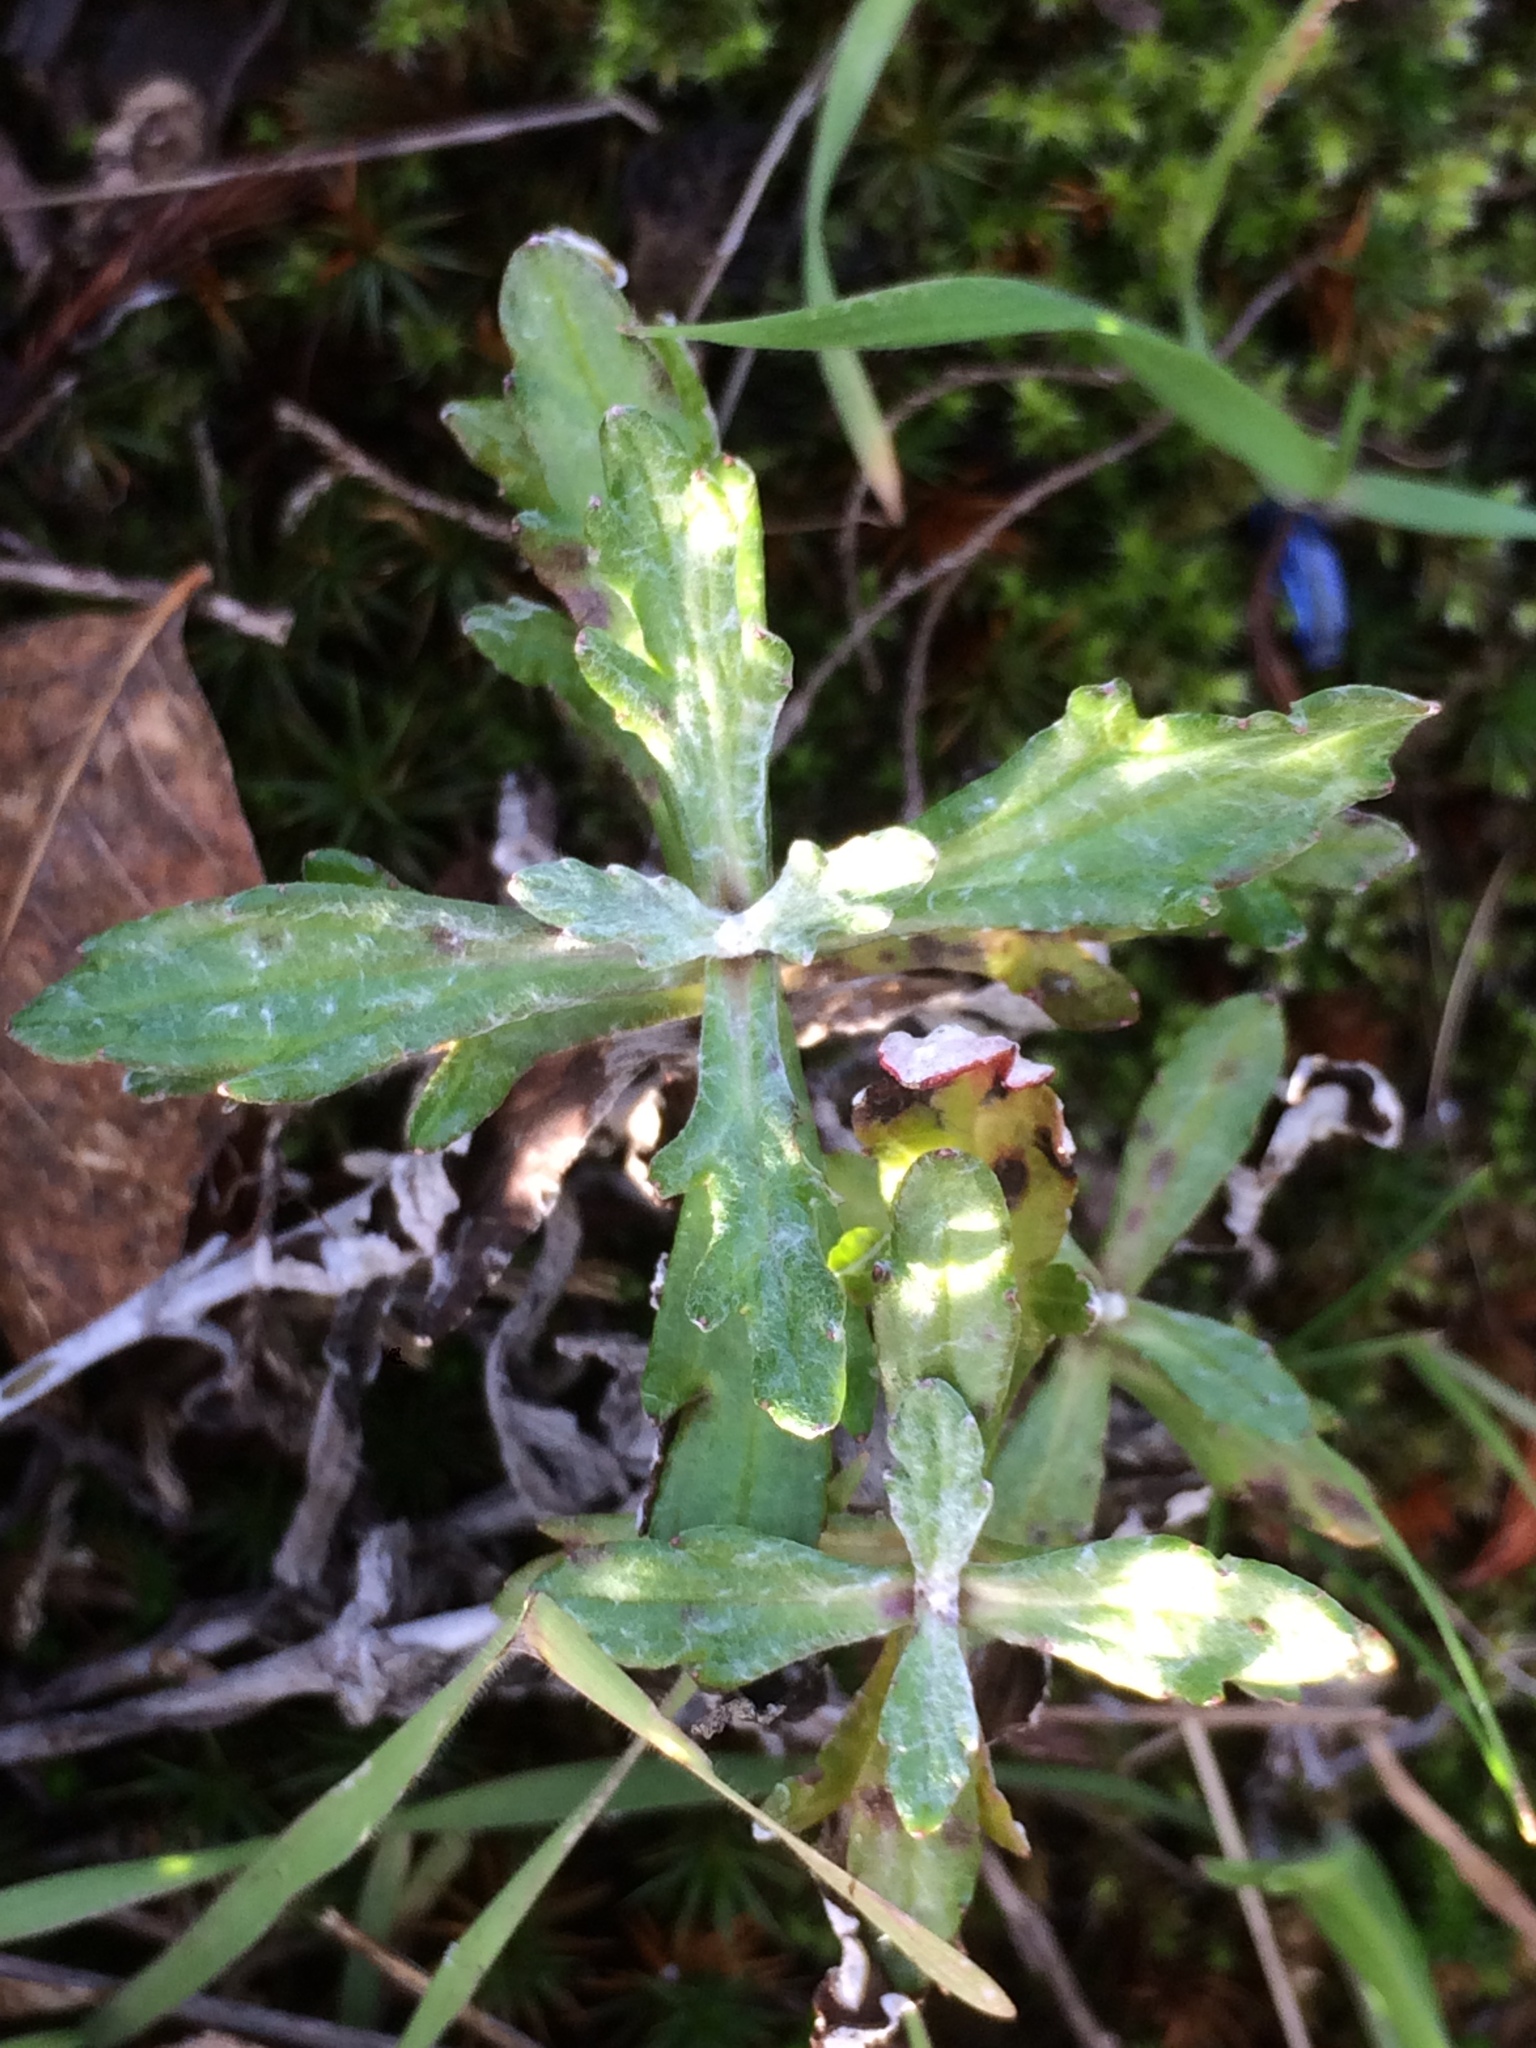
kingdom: Plantae
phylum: Tracheophyta
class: Magnoliopsida
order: Asterales
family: Asteraceae
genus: Eriophyllum
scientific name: Eriophyllum lanatum
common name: Common woolly-sunflower
